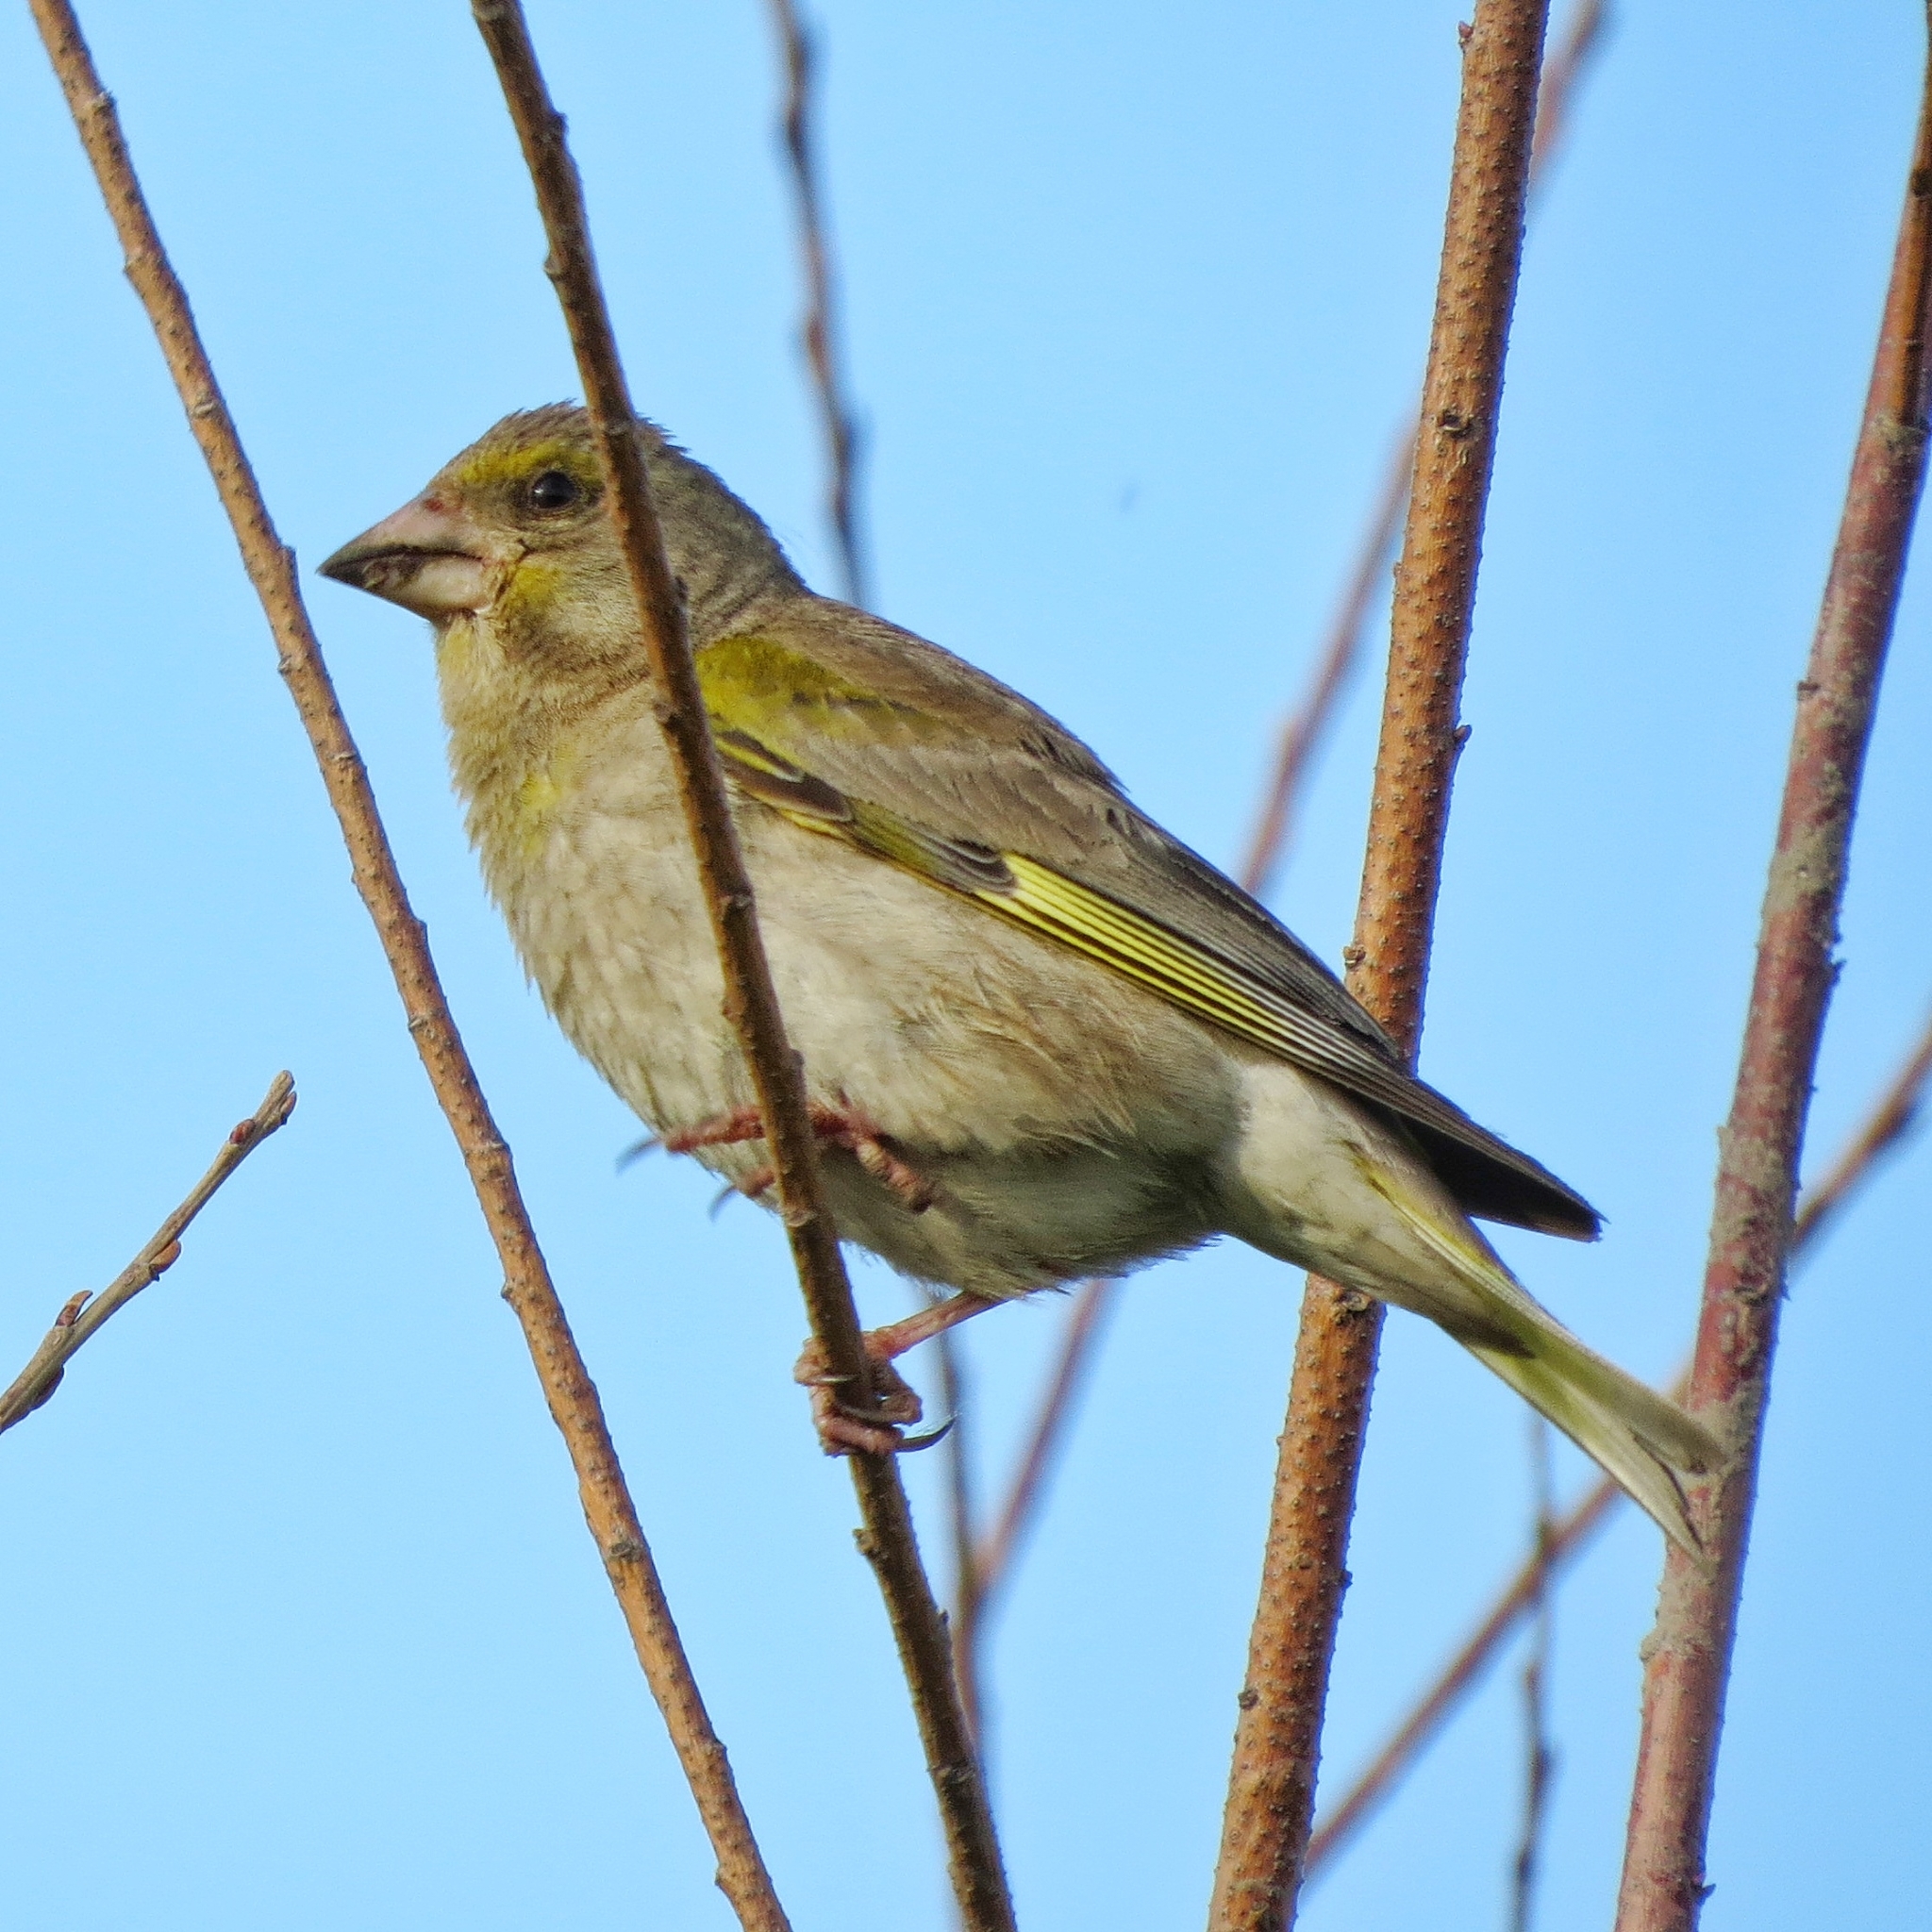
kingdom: Plantae
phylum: Tracheophyta
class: Liliopsida
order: Poales
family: Poaceae
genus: Chloris
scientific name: Chloris chloris
